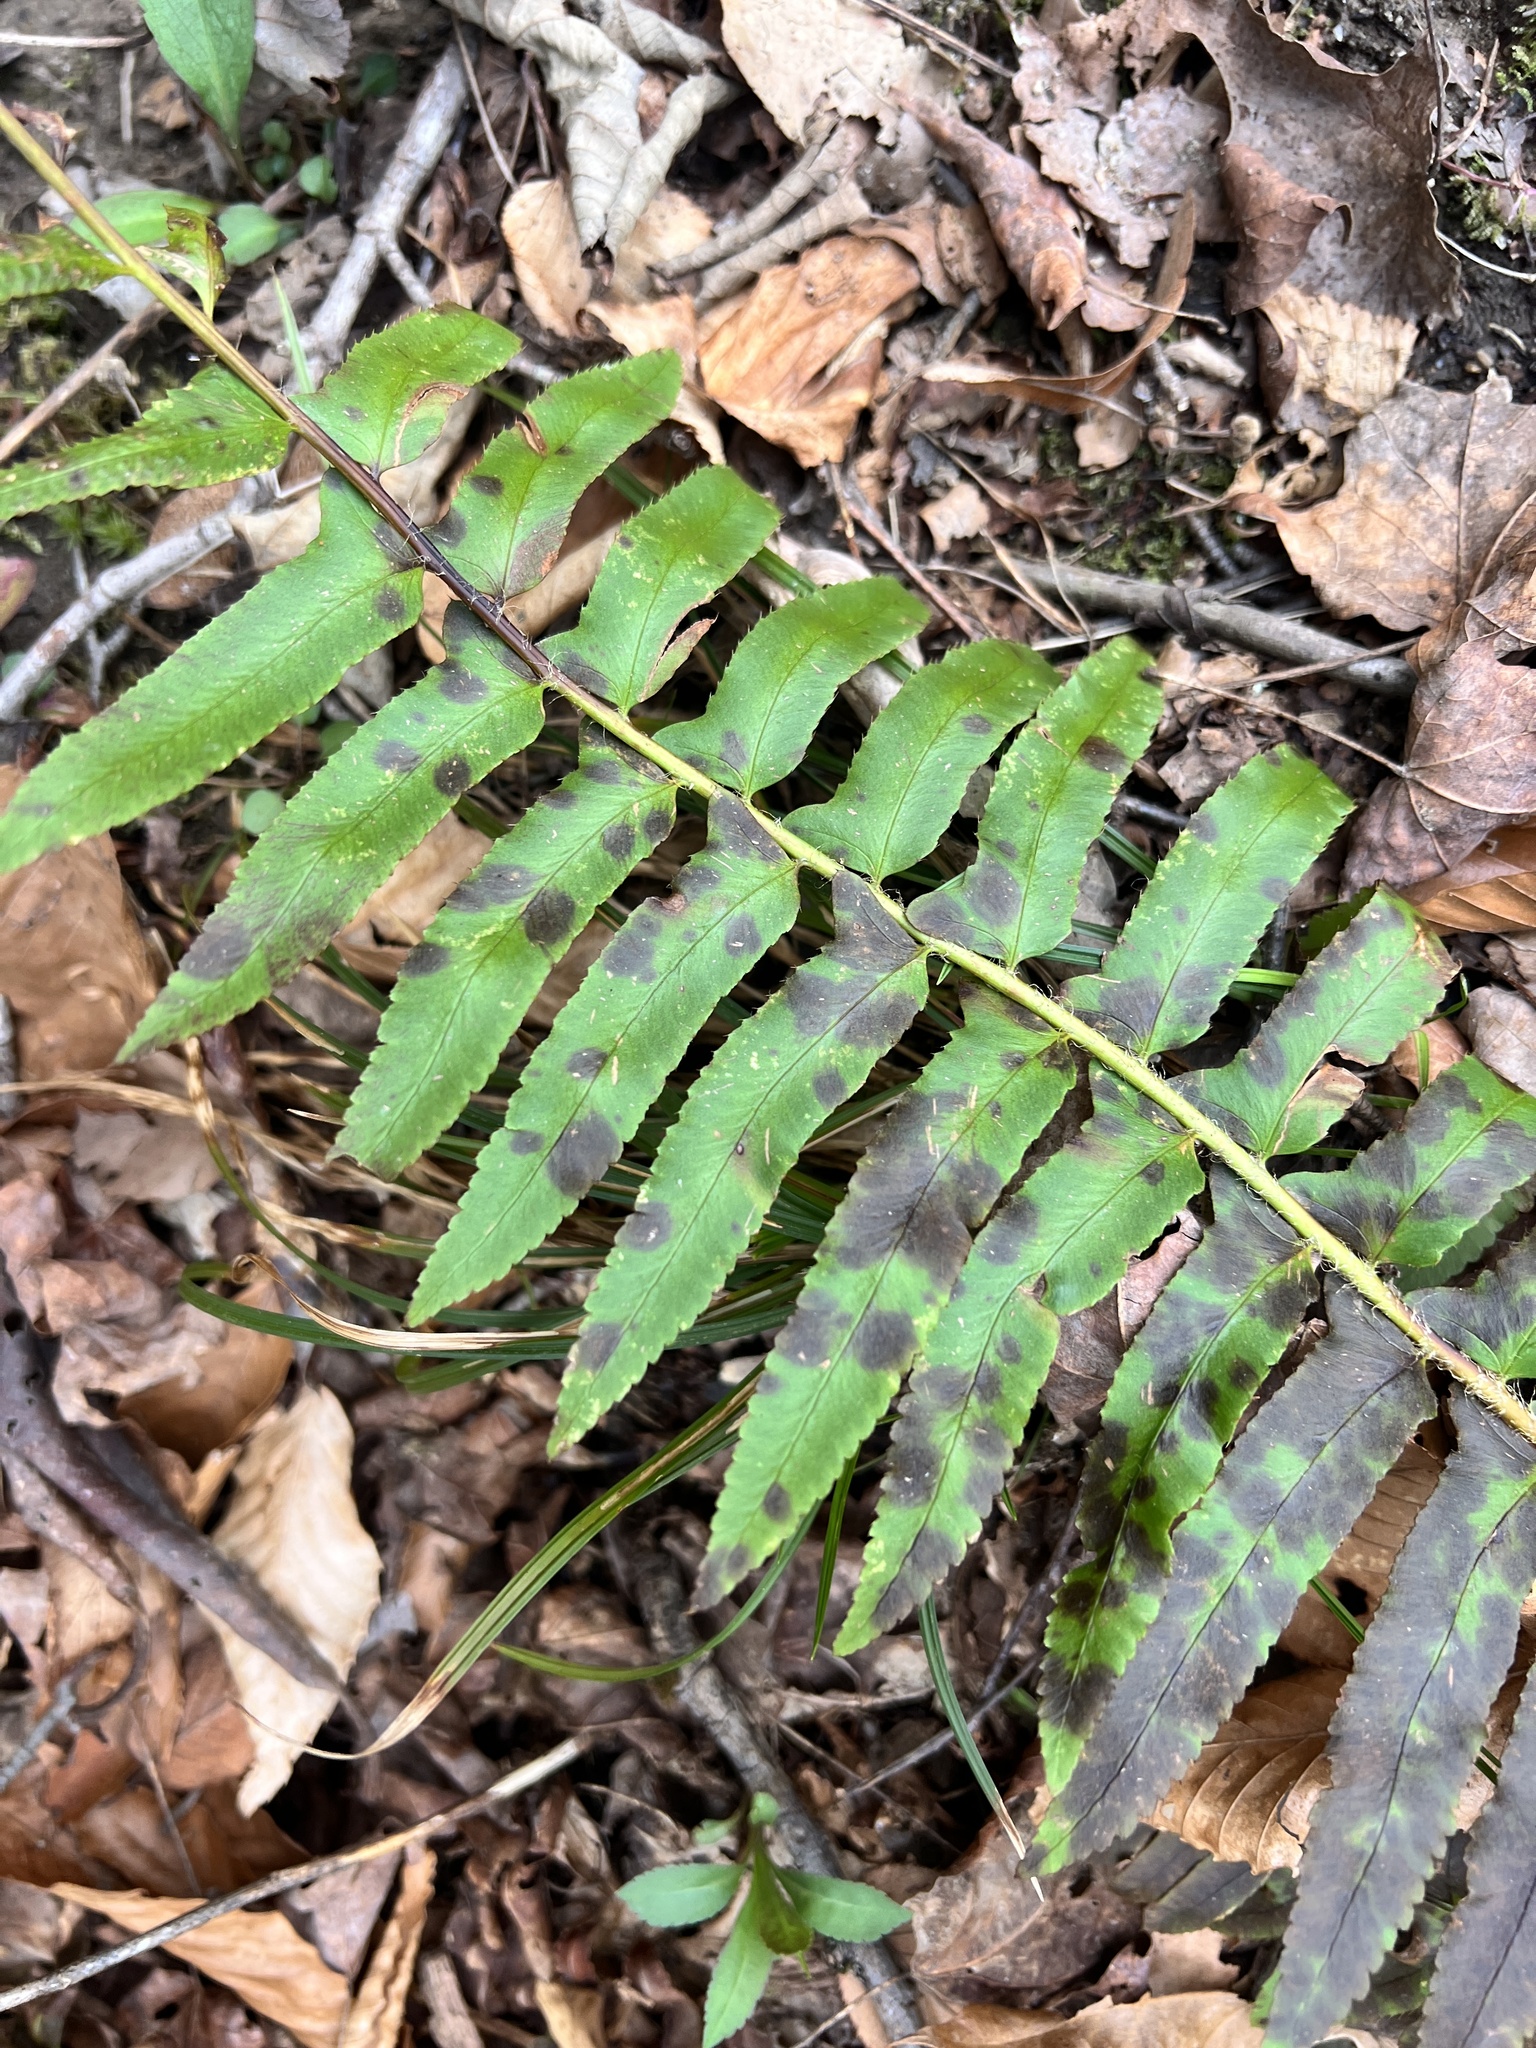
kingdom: Plantae
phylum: Tracheophyta
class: Polypodiopsida
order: Polypodiales
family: Dryopteridaceae
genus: Polystichum
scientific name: Polystichum acrostichoides
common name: Christmas fern
